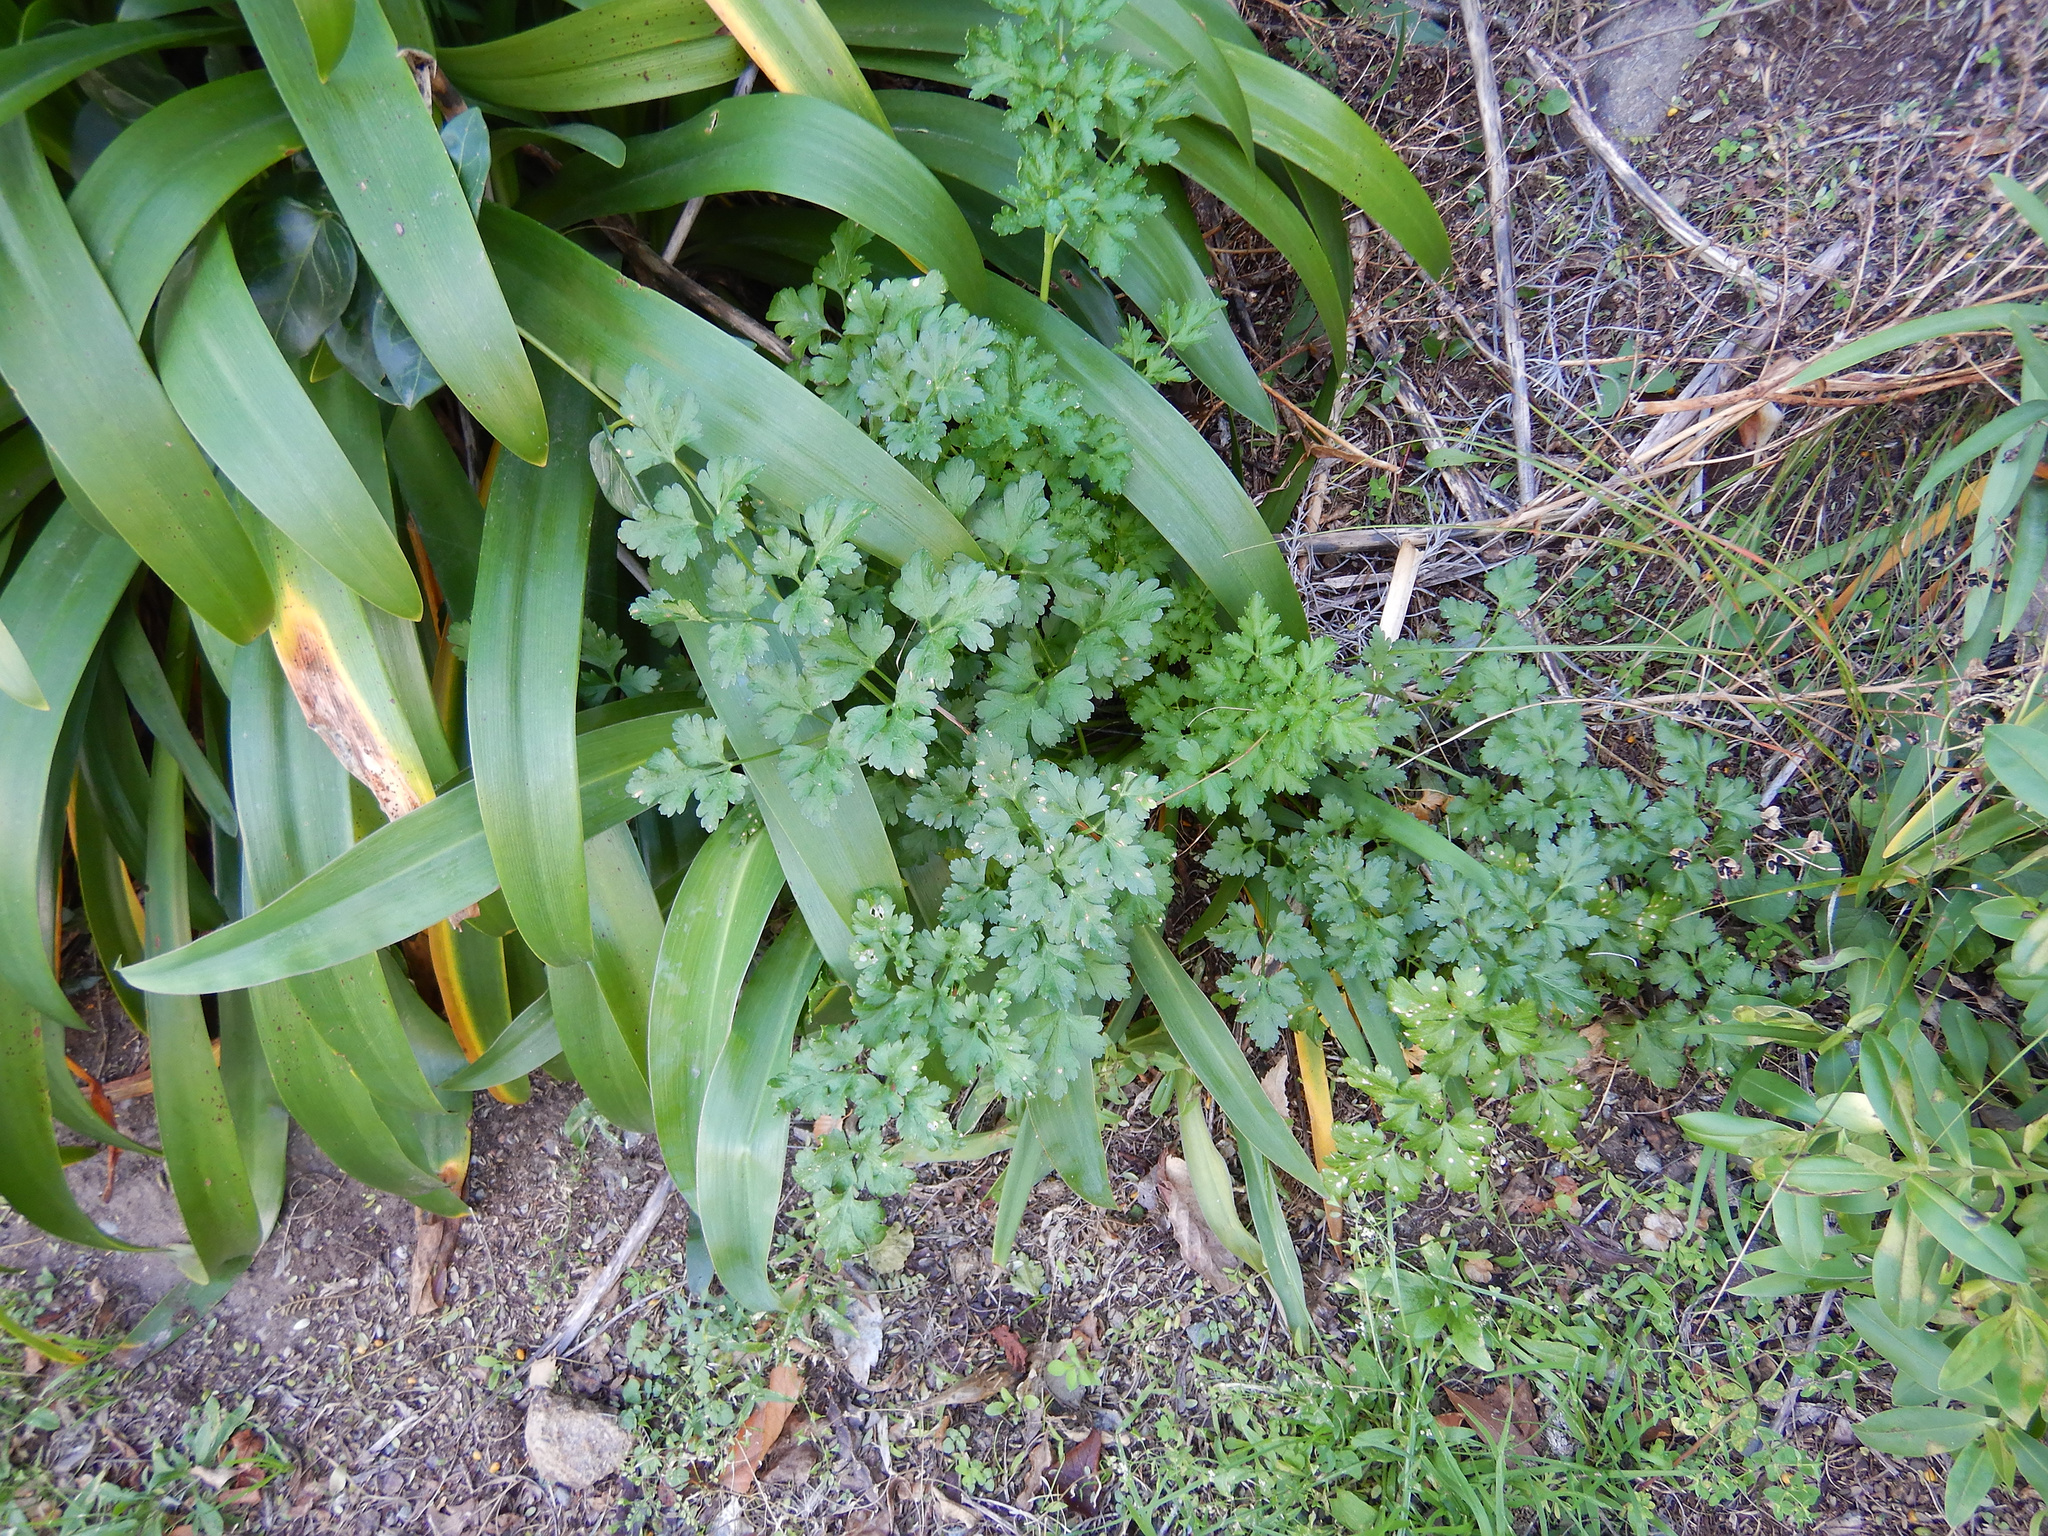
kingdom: Plantae
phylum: Tracheophyta
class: Magnoliopsida
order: Apiales
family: Apiaceae
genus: Petroselinum
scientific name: Petroselinum crispum
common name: Parsley
